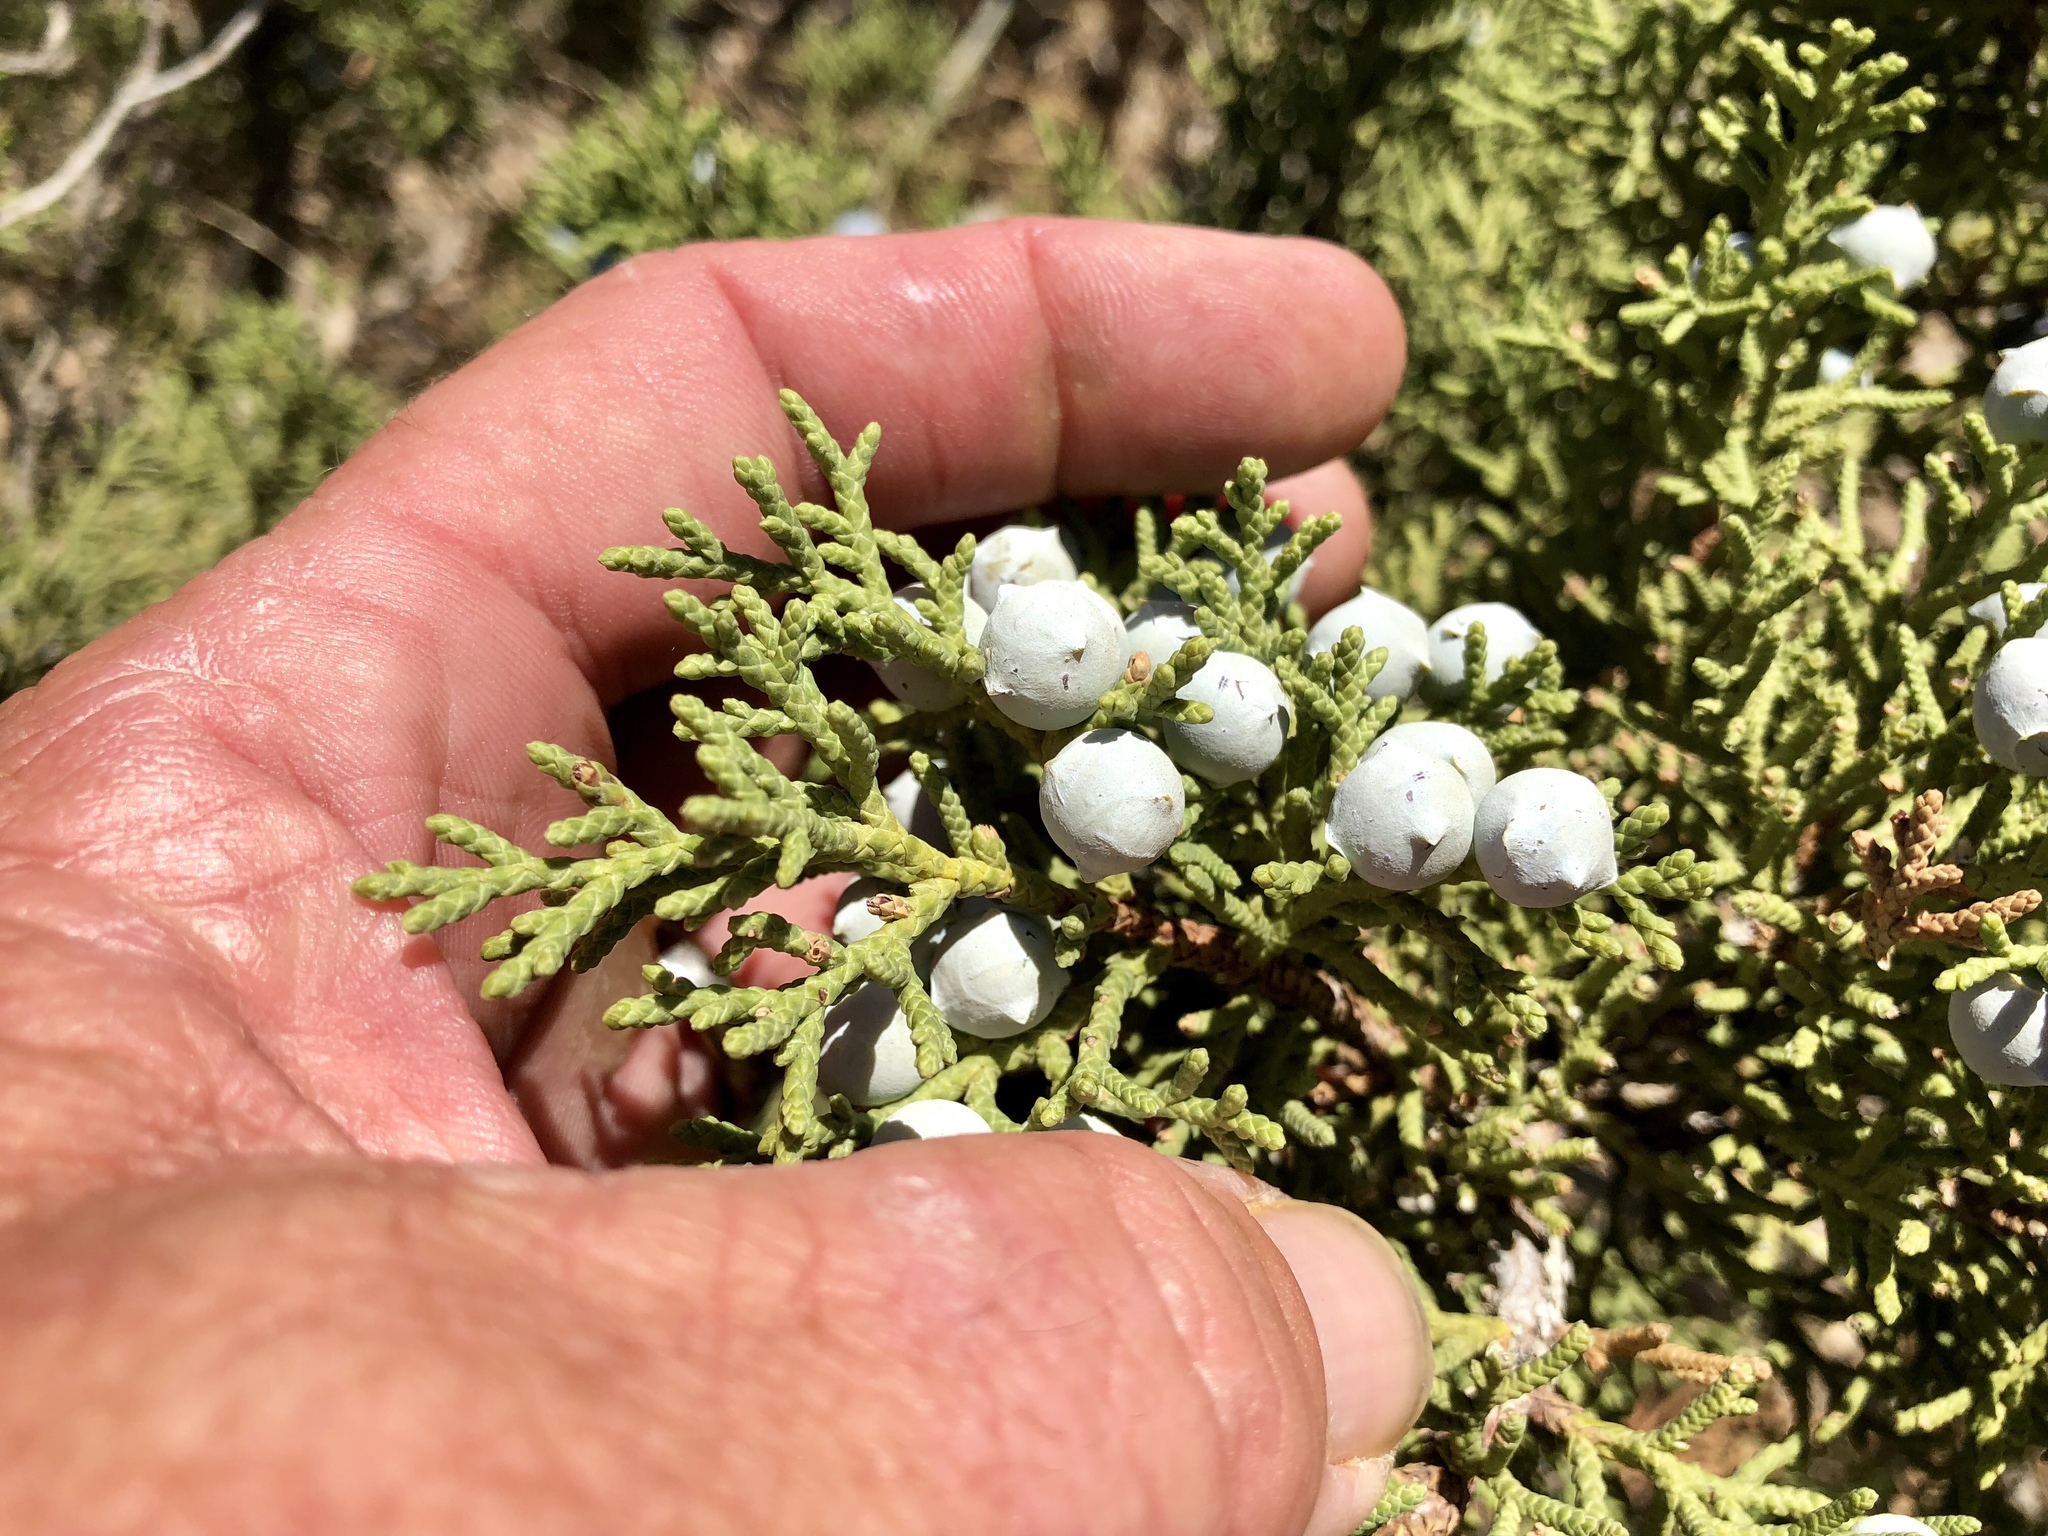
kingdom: Plantae
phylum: Tracheophyta
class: Pinopsida
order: Pinales
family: Cupressaceae
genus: Juniperus
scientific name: Juniperus osteosperma
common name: Utah juniper
